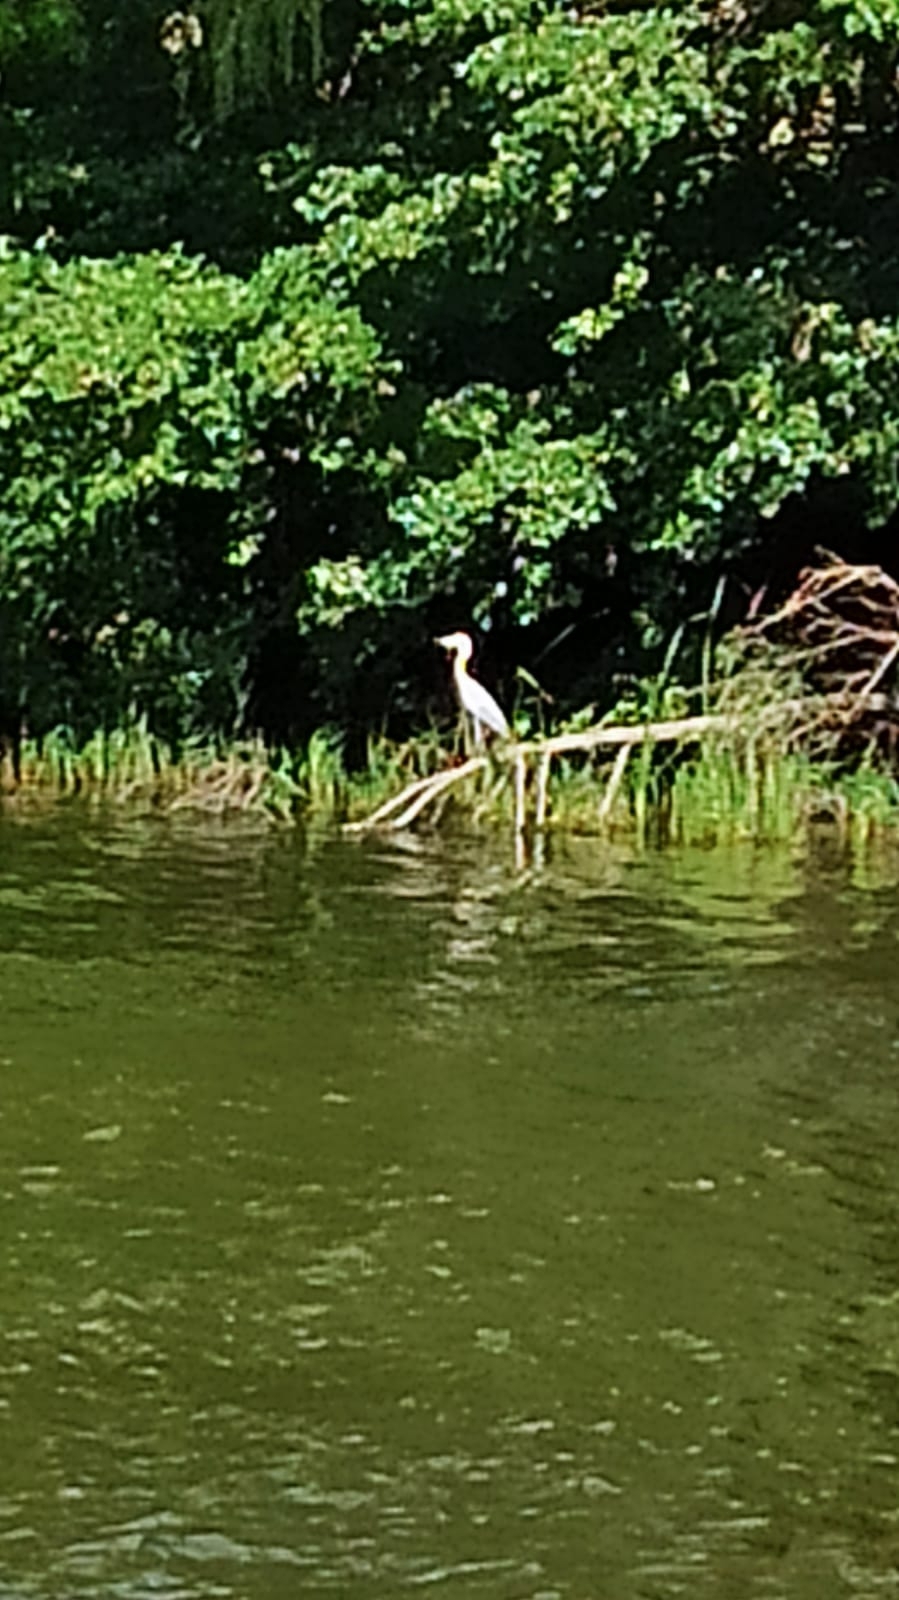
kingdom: Animalia
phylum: Chordata
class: Aves
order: Pelecaniformes
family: Ardeidae
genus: Ardea
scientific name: Ardea cinerea
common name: Grey heron
